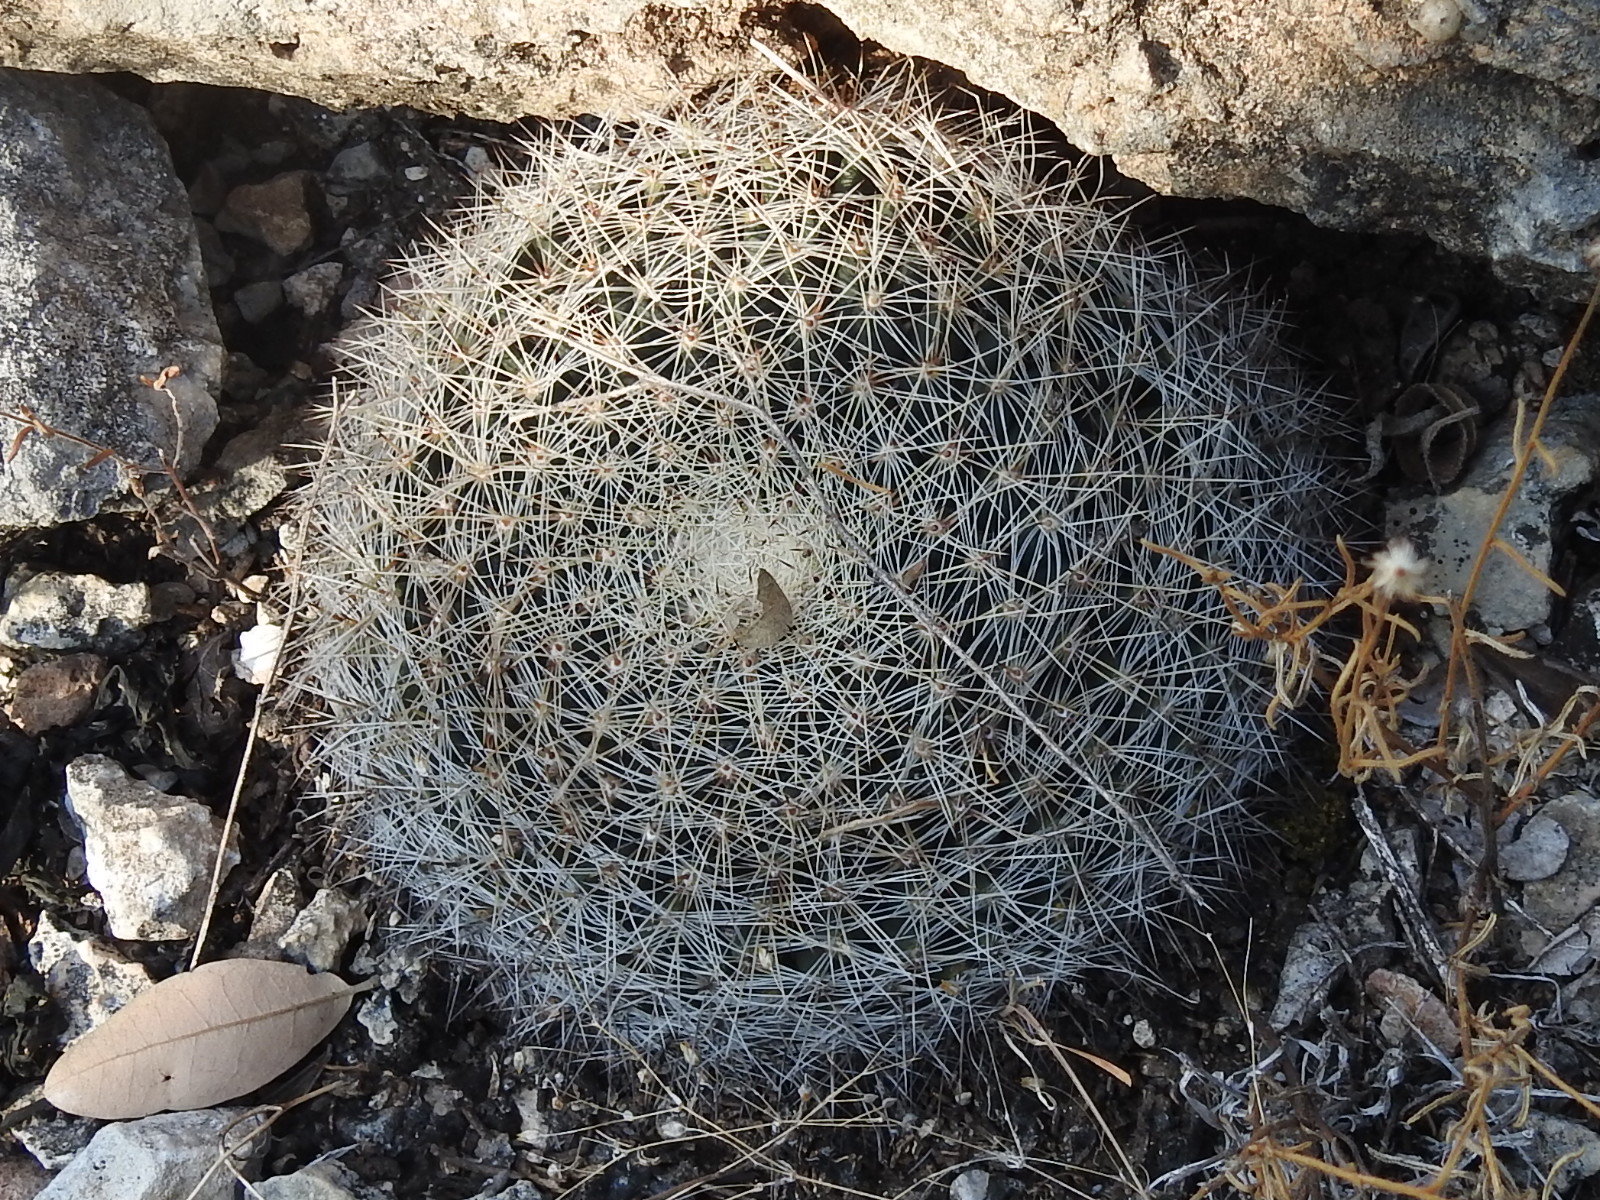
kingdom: Plantae
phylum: Tracheophyta
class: Magnoliopsida
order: Caryophyllales
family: Cactaceae
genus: Mammillaria
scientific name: Mammillaria heyderi
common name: Little nipple cactus
